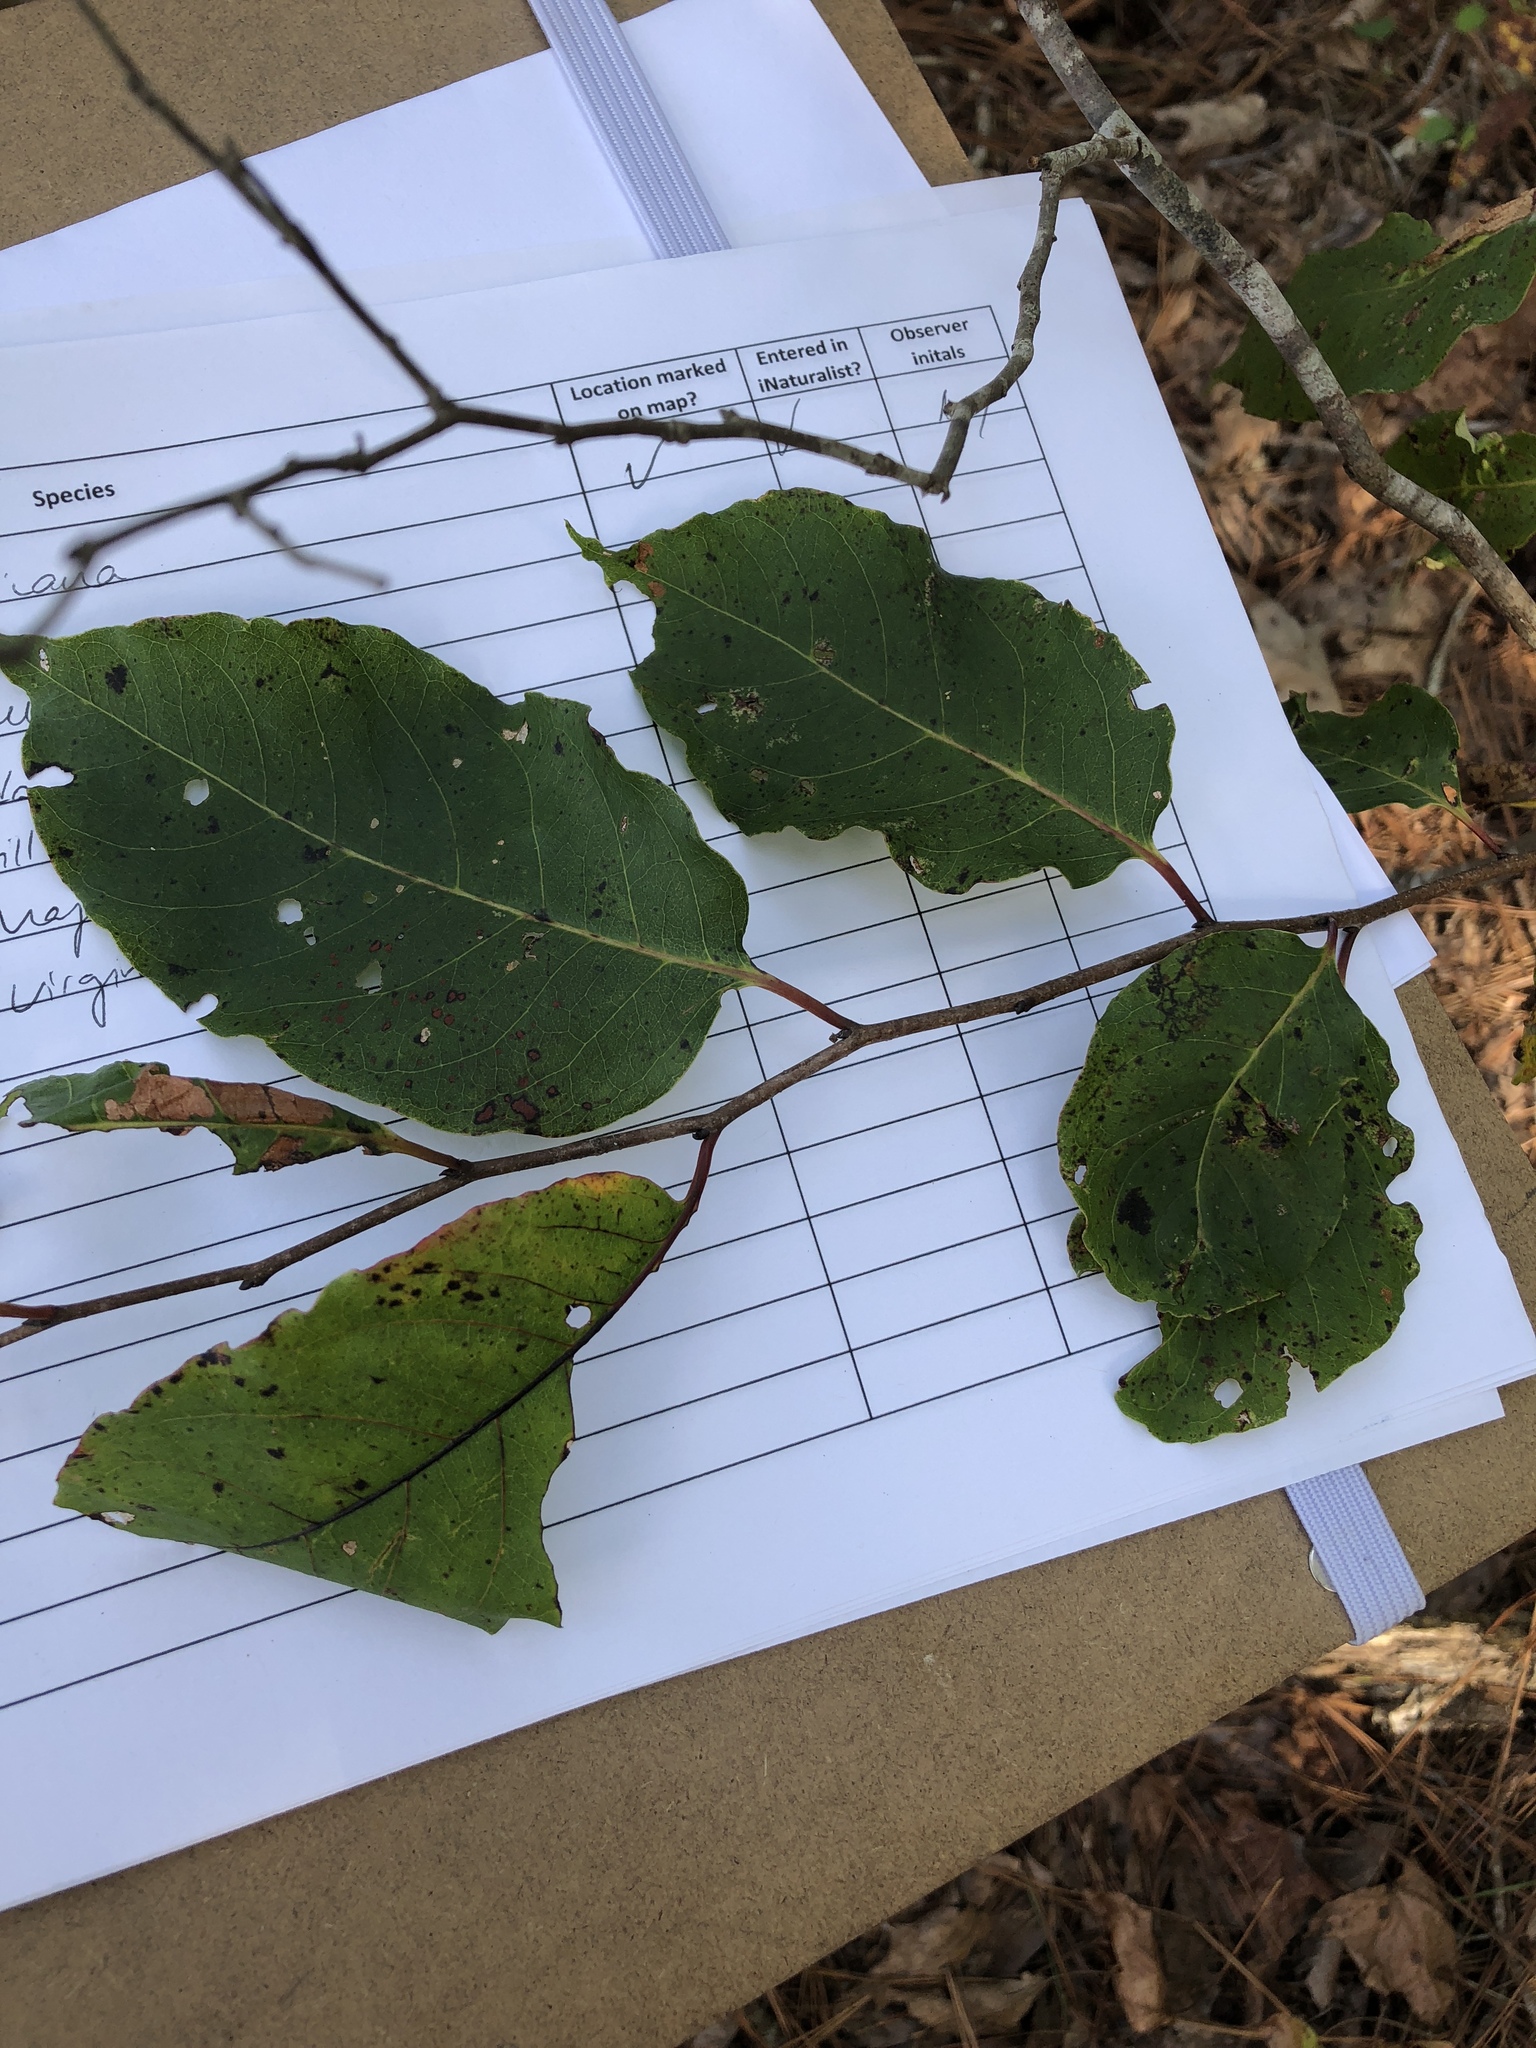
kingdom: Plantae
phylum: Tracheophyta
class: Magnoliopsida
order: Ericales
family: Ebenaceae
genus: Diospyros
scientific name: Diospyros virginiana
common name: Persimmon
